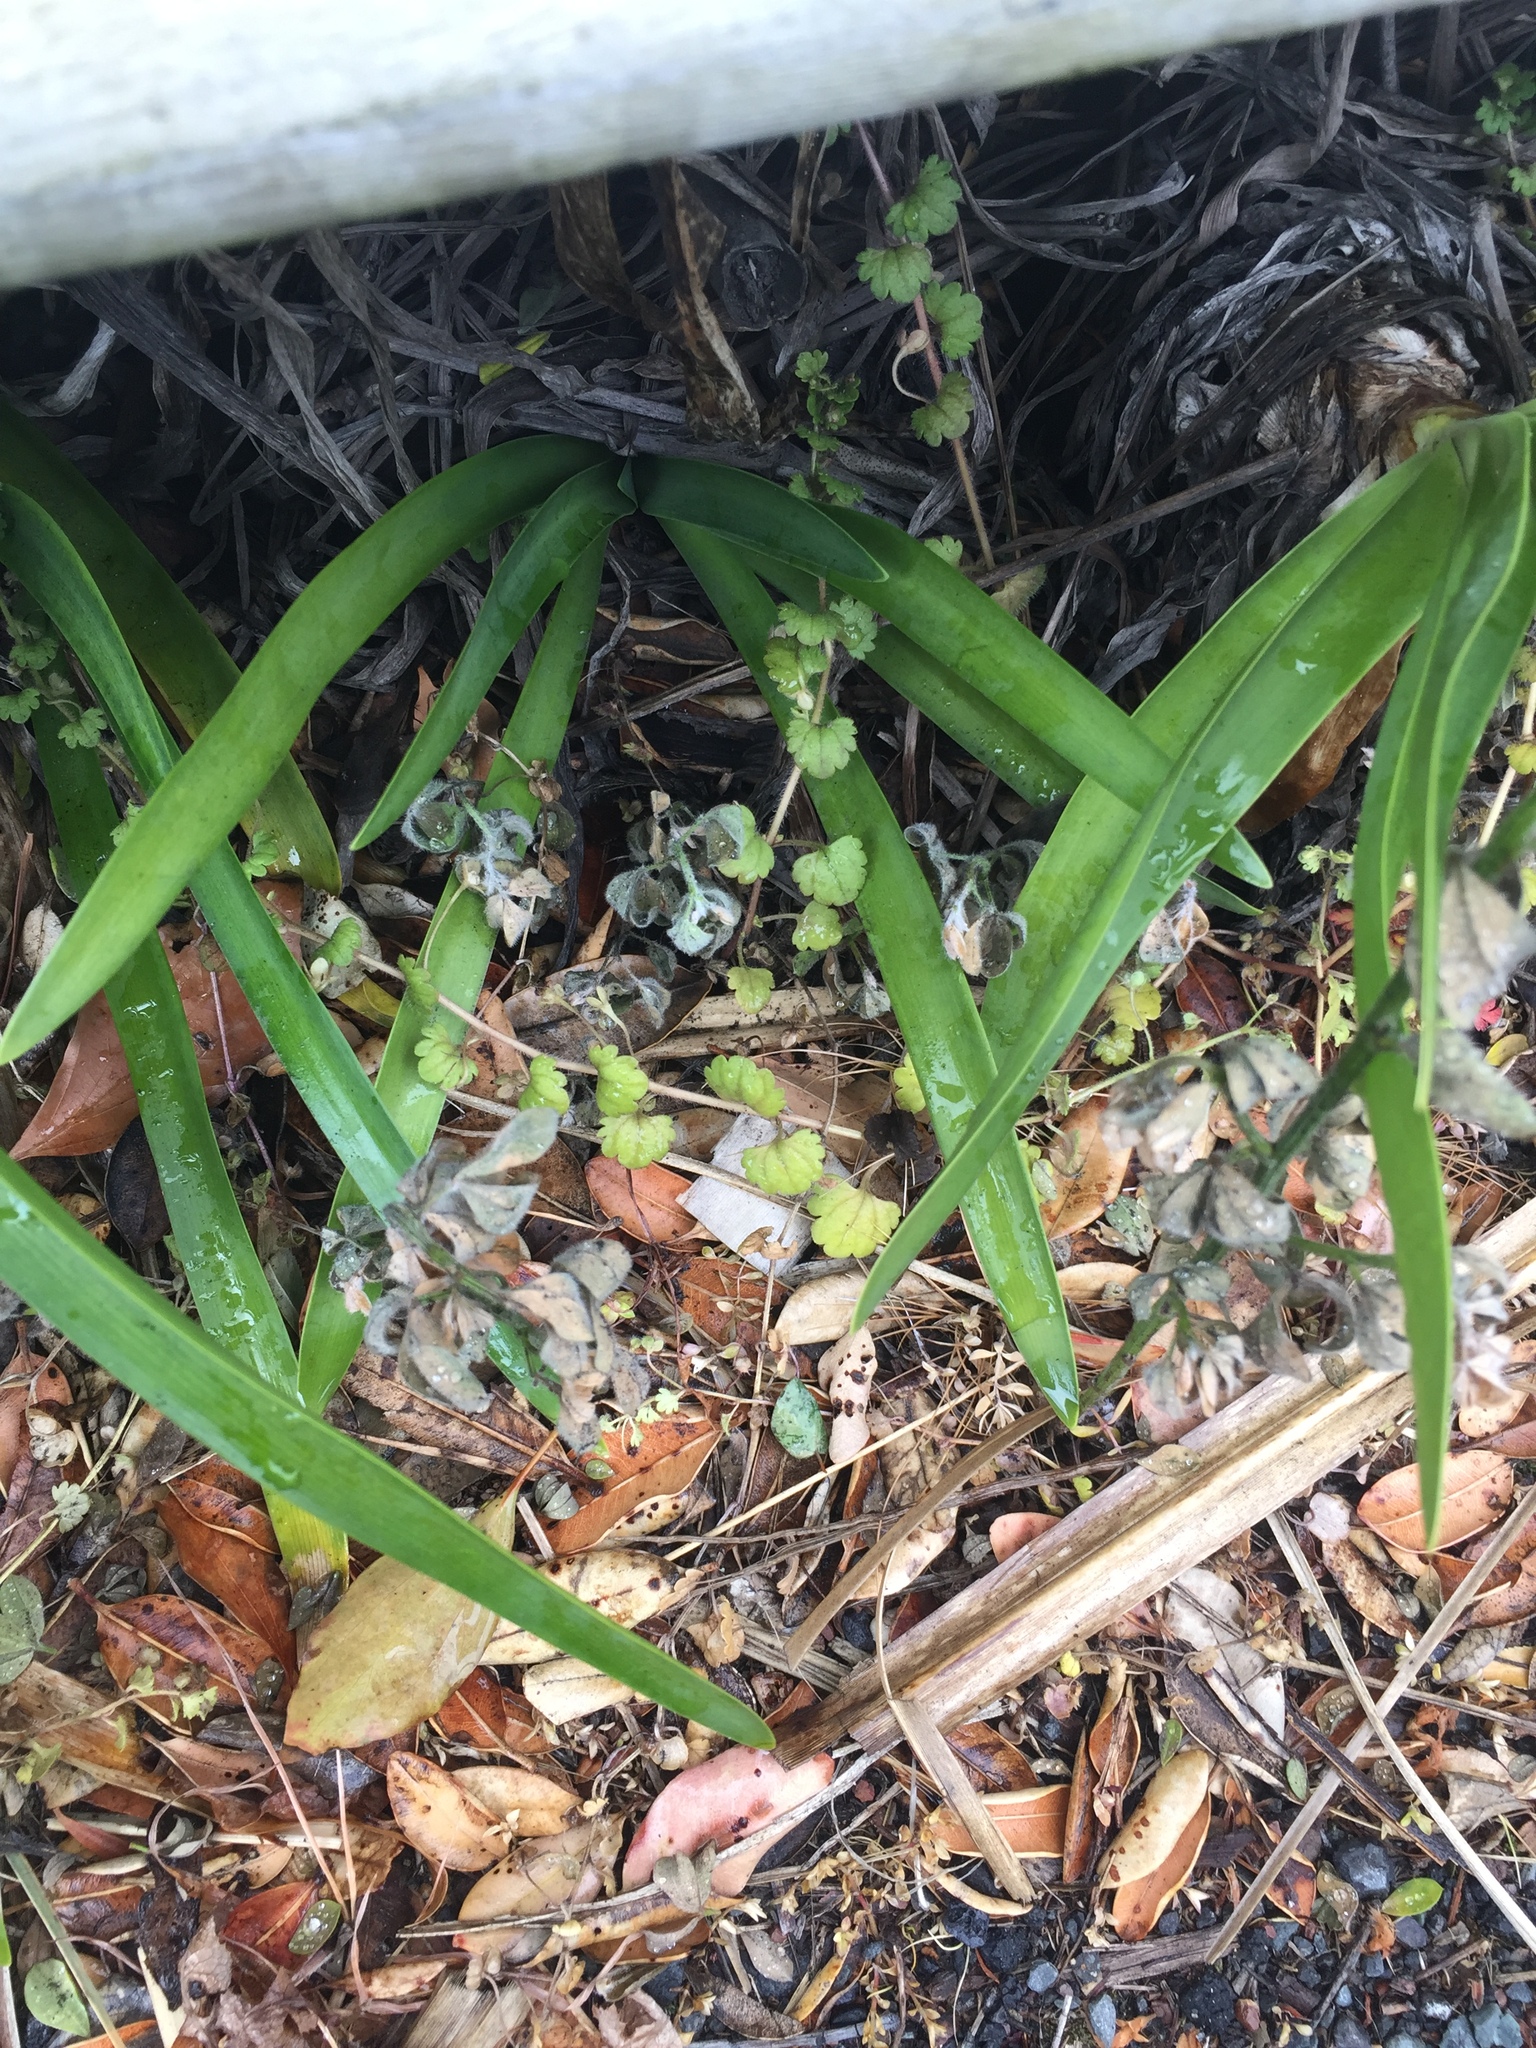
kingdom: Plantae
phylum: Tracheophyta
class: Magnoliopsida
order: Lamiales
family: Plantaginaceae
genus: Veronica
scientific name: Veronica cymbalaria
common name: Pale speedwell
